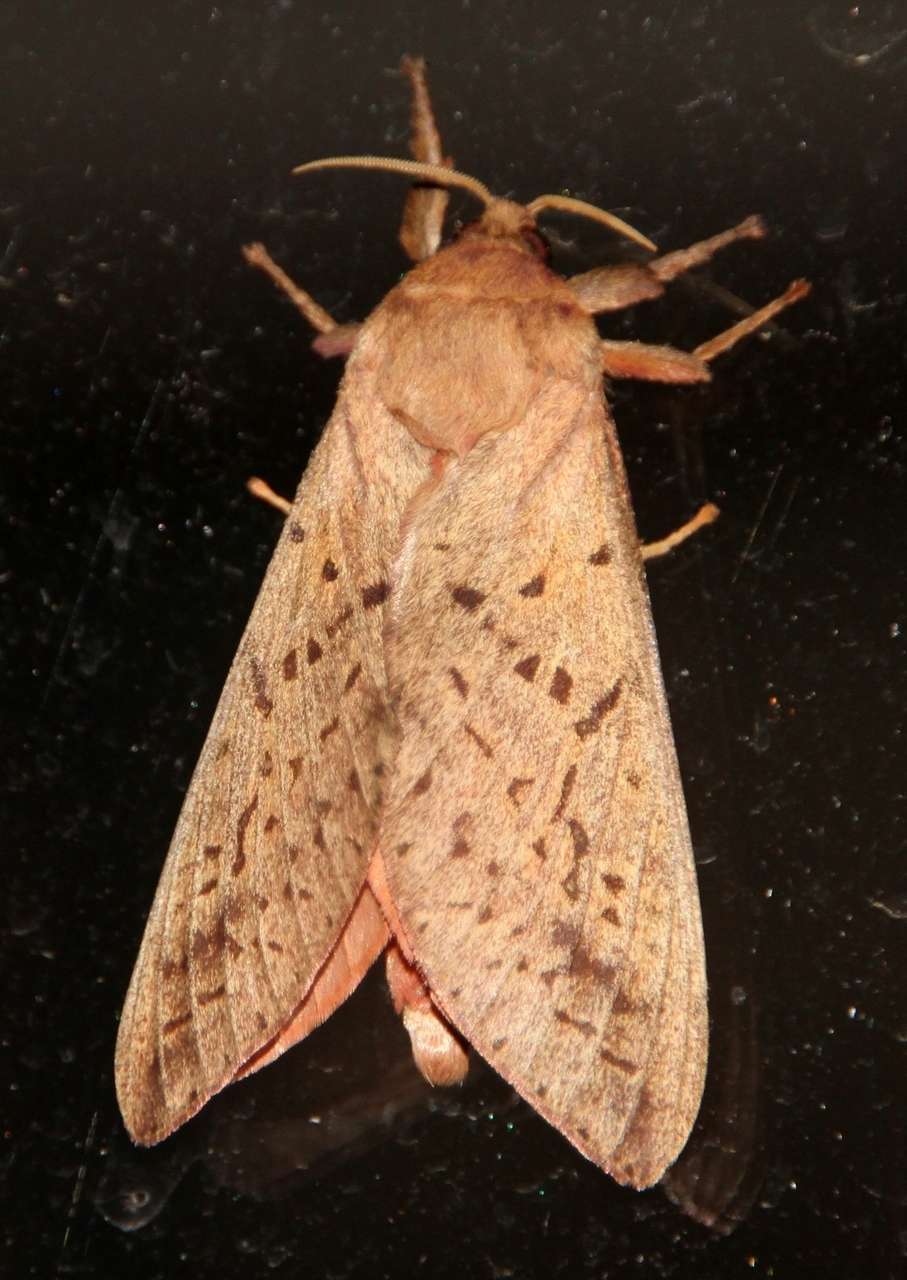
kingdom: Animalia
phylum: Arthropoda
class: Insecta
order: Lepidoptera
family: Hepialidae
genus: Oxycanus
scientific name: Oxycanus sirpus
